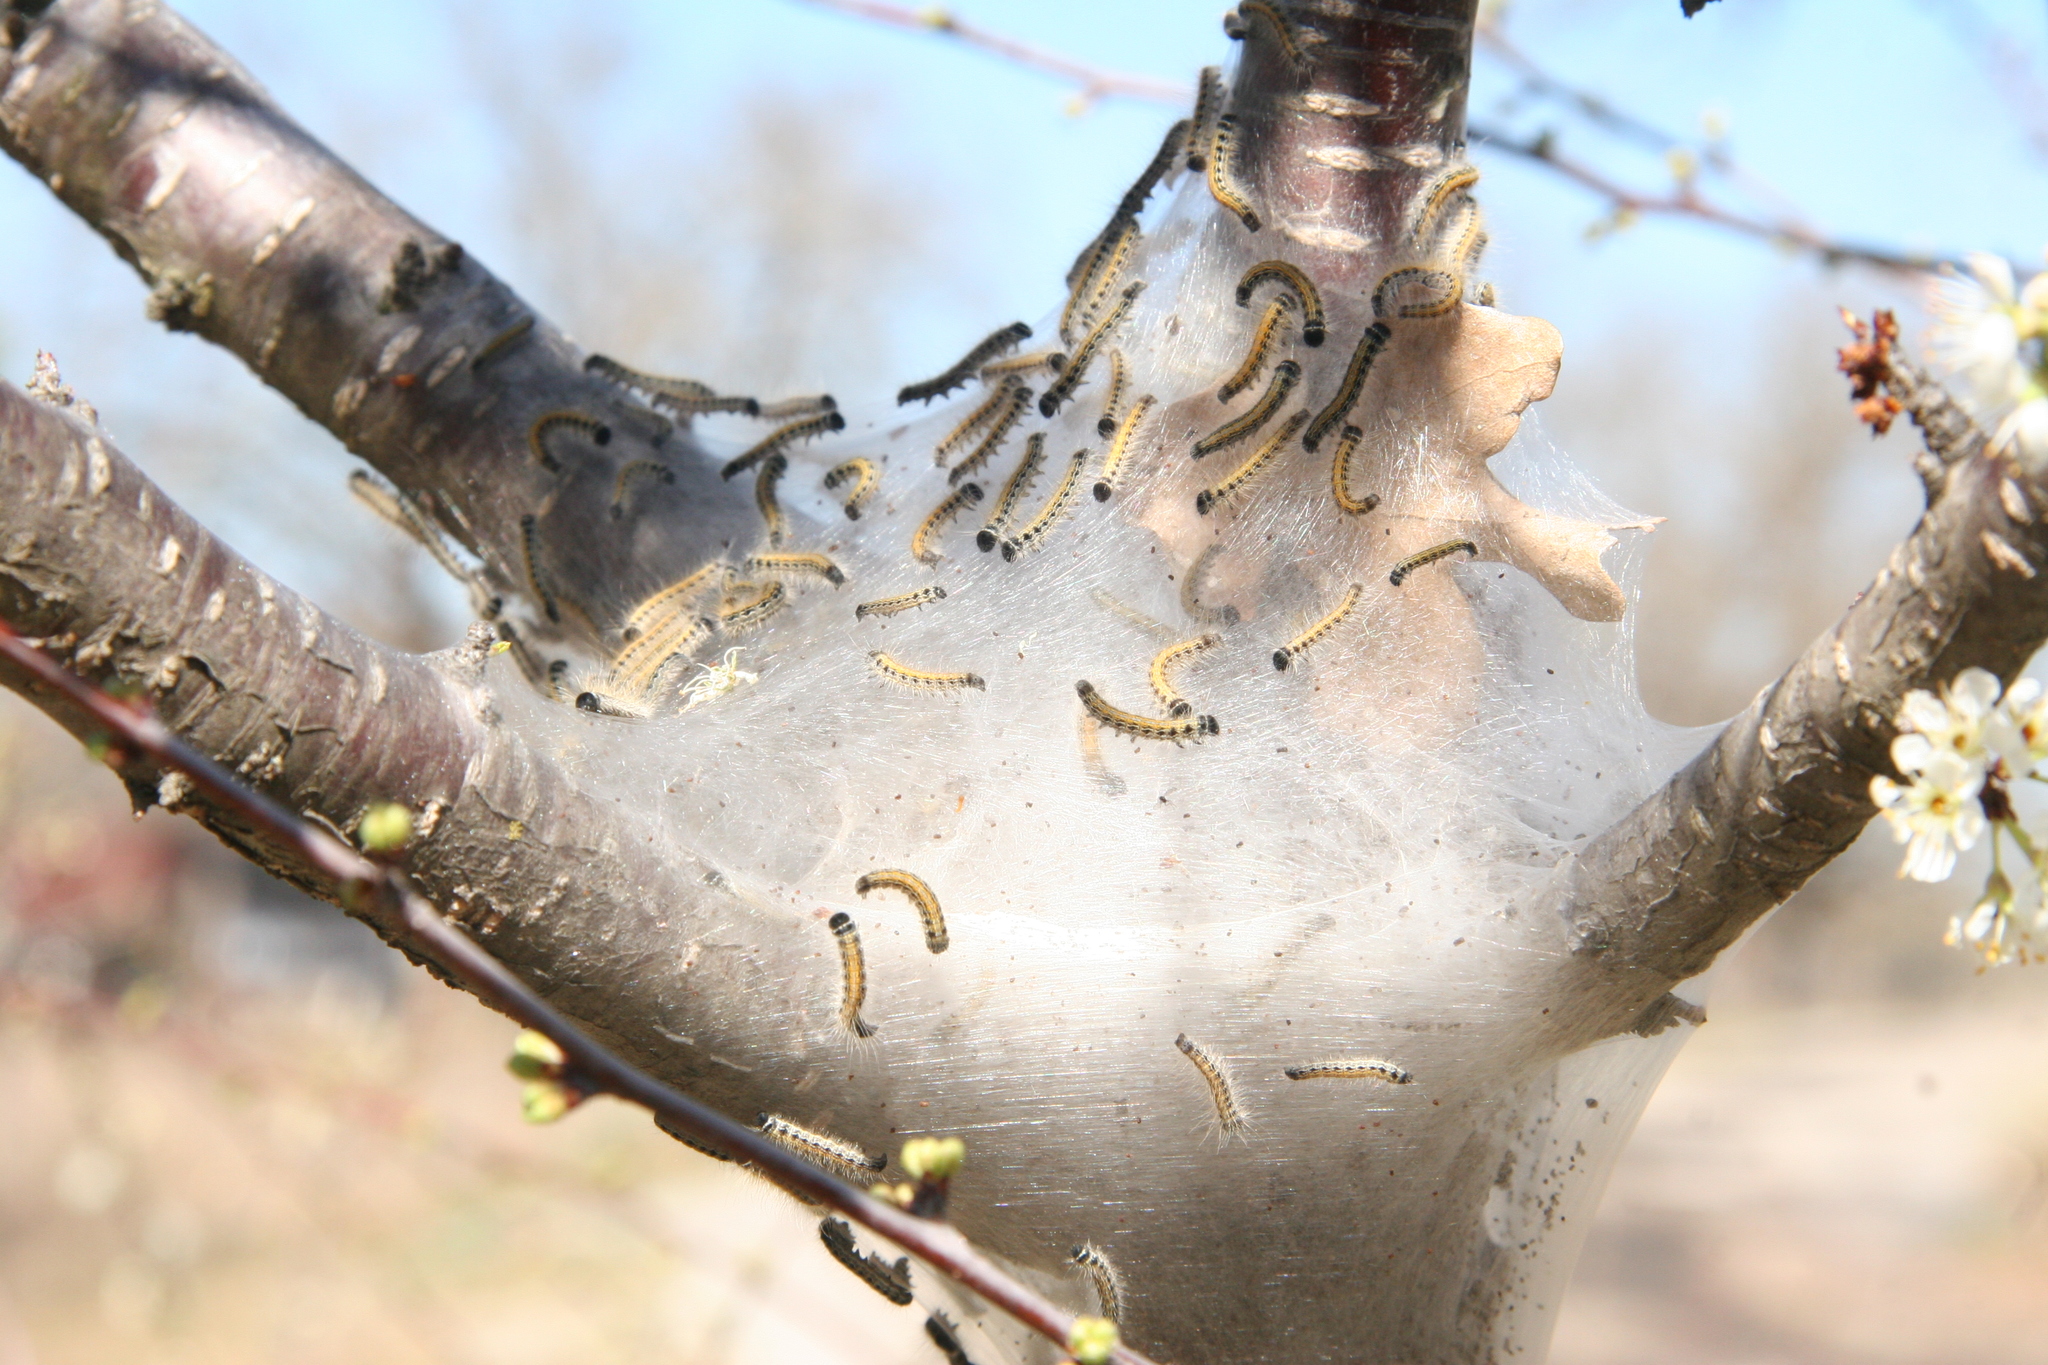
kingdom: Animalia
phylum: Arthropoda
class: Insecta
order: Lepidoptera
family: Lasiocampidae
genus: Malacosoma
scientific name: Malacosoma americana
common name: Eastern tent caterpillar moth
